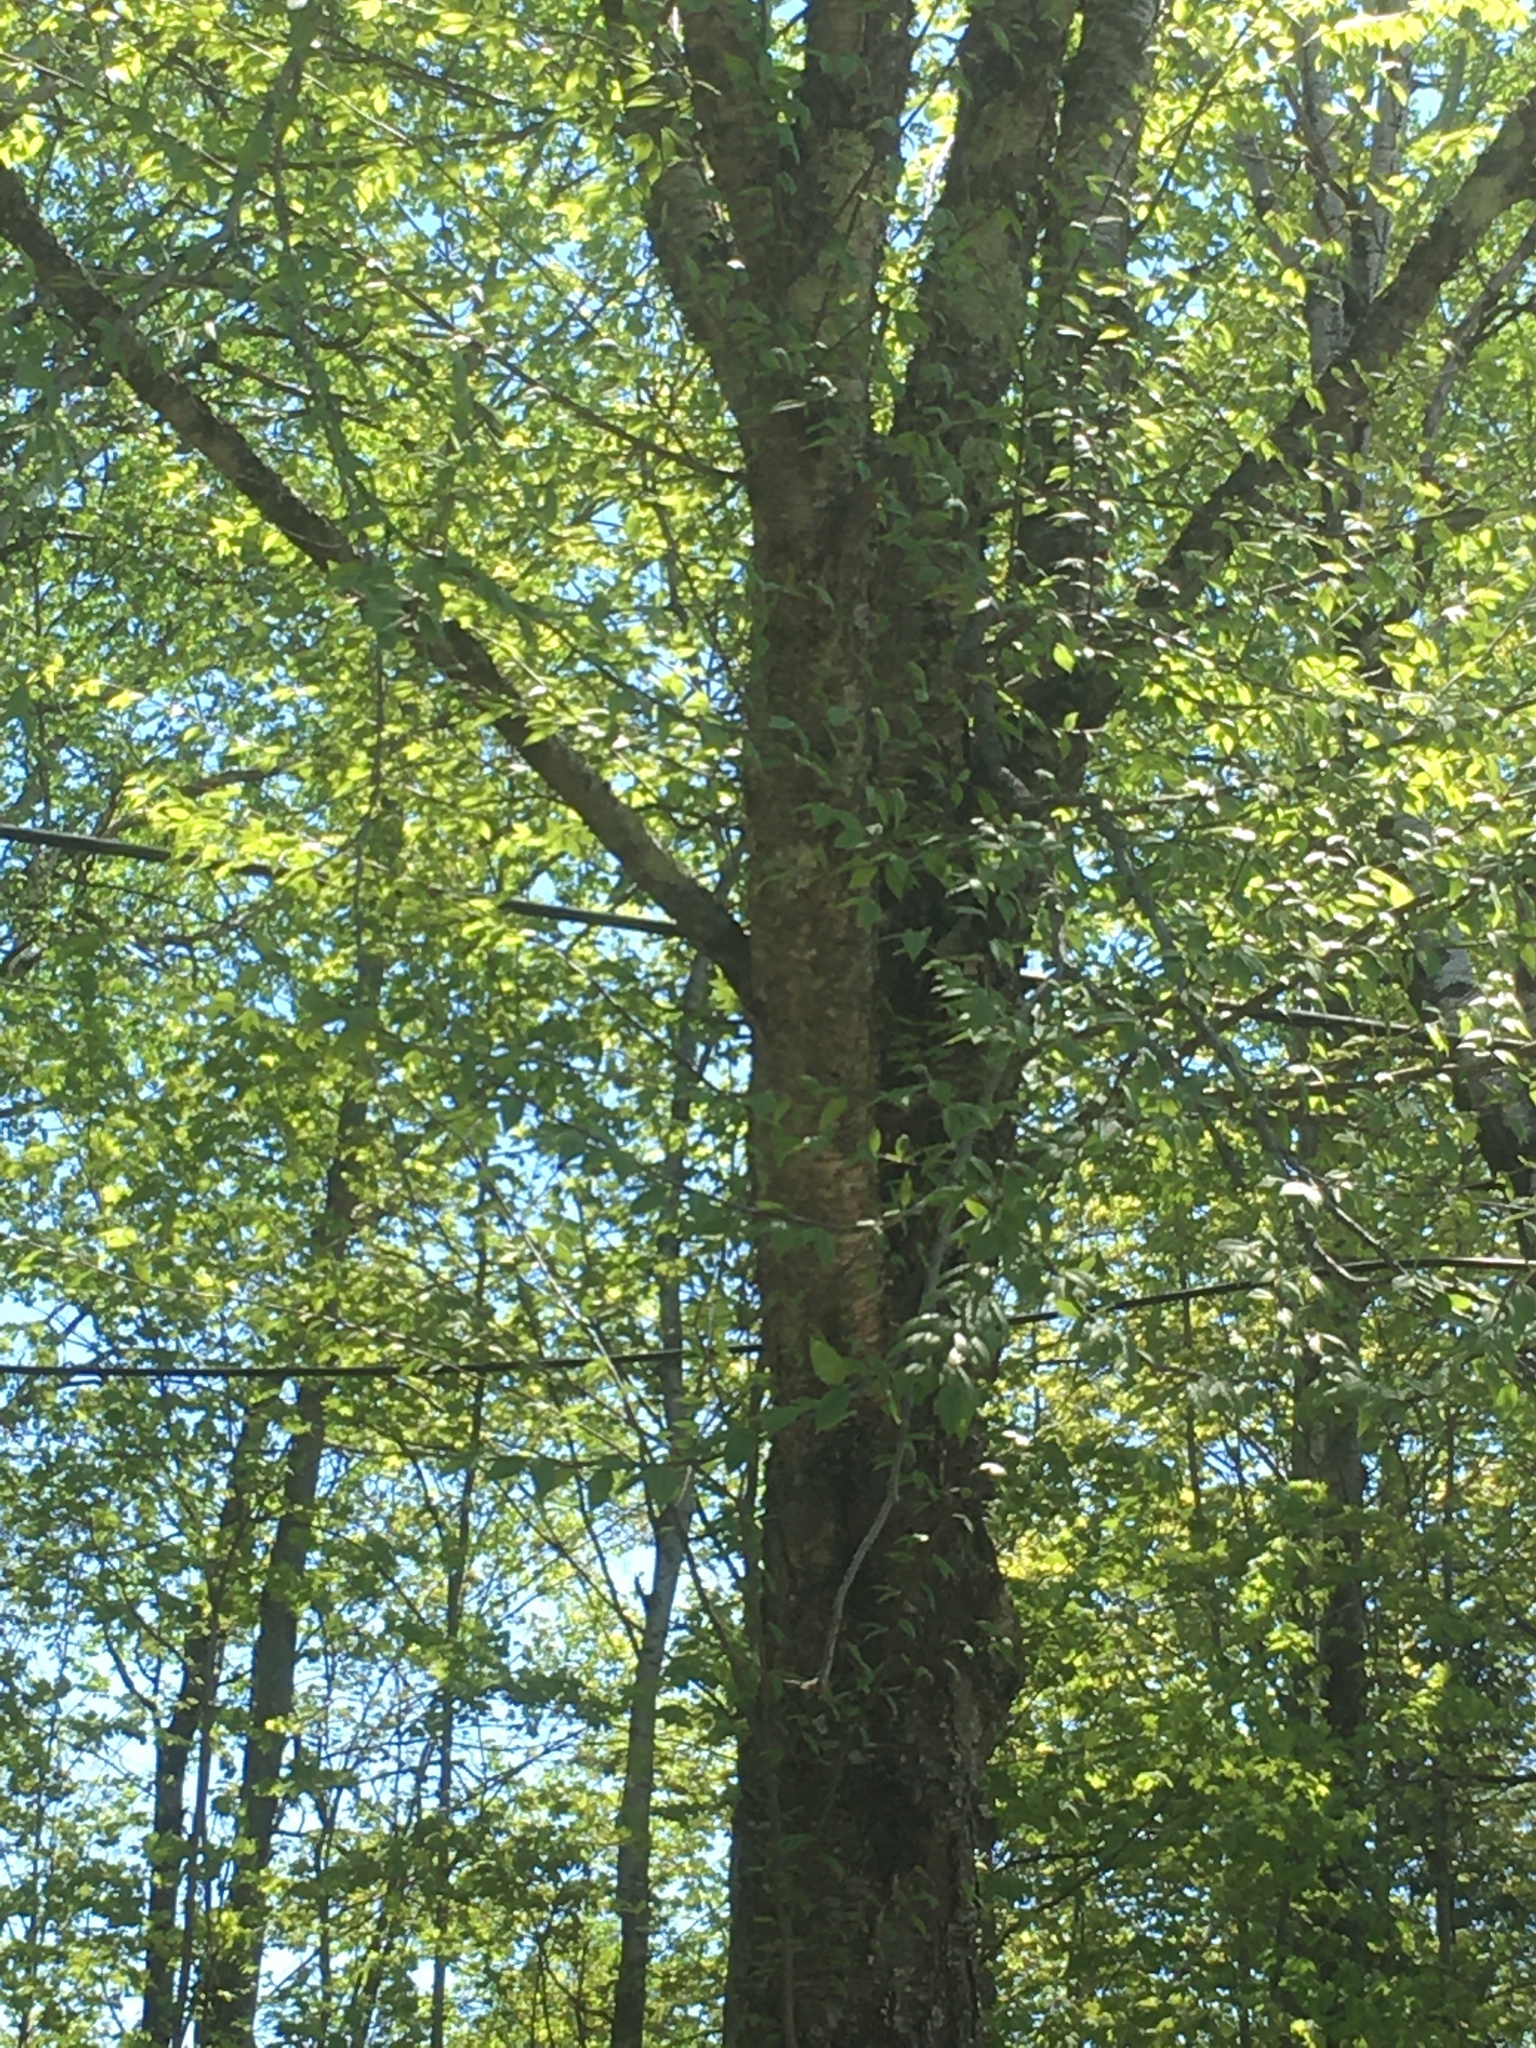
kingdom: Plantae
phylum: Tracheophyta
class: Magnoliopsida
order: Fagales
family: Betulaceae
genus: Betula
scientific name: Betula alleghaniensis
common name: Yellow birch
